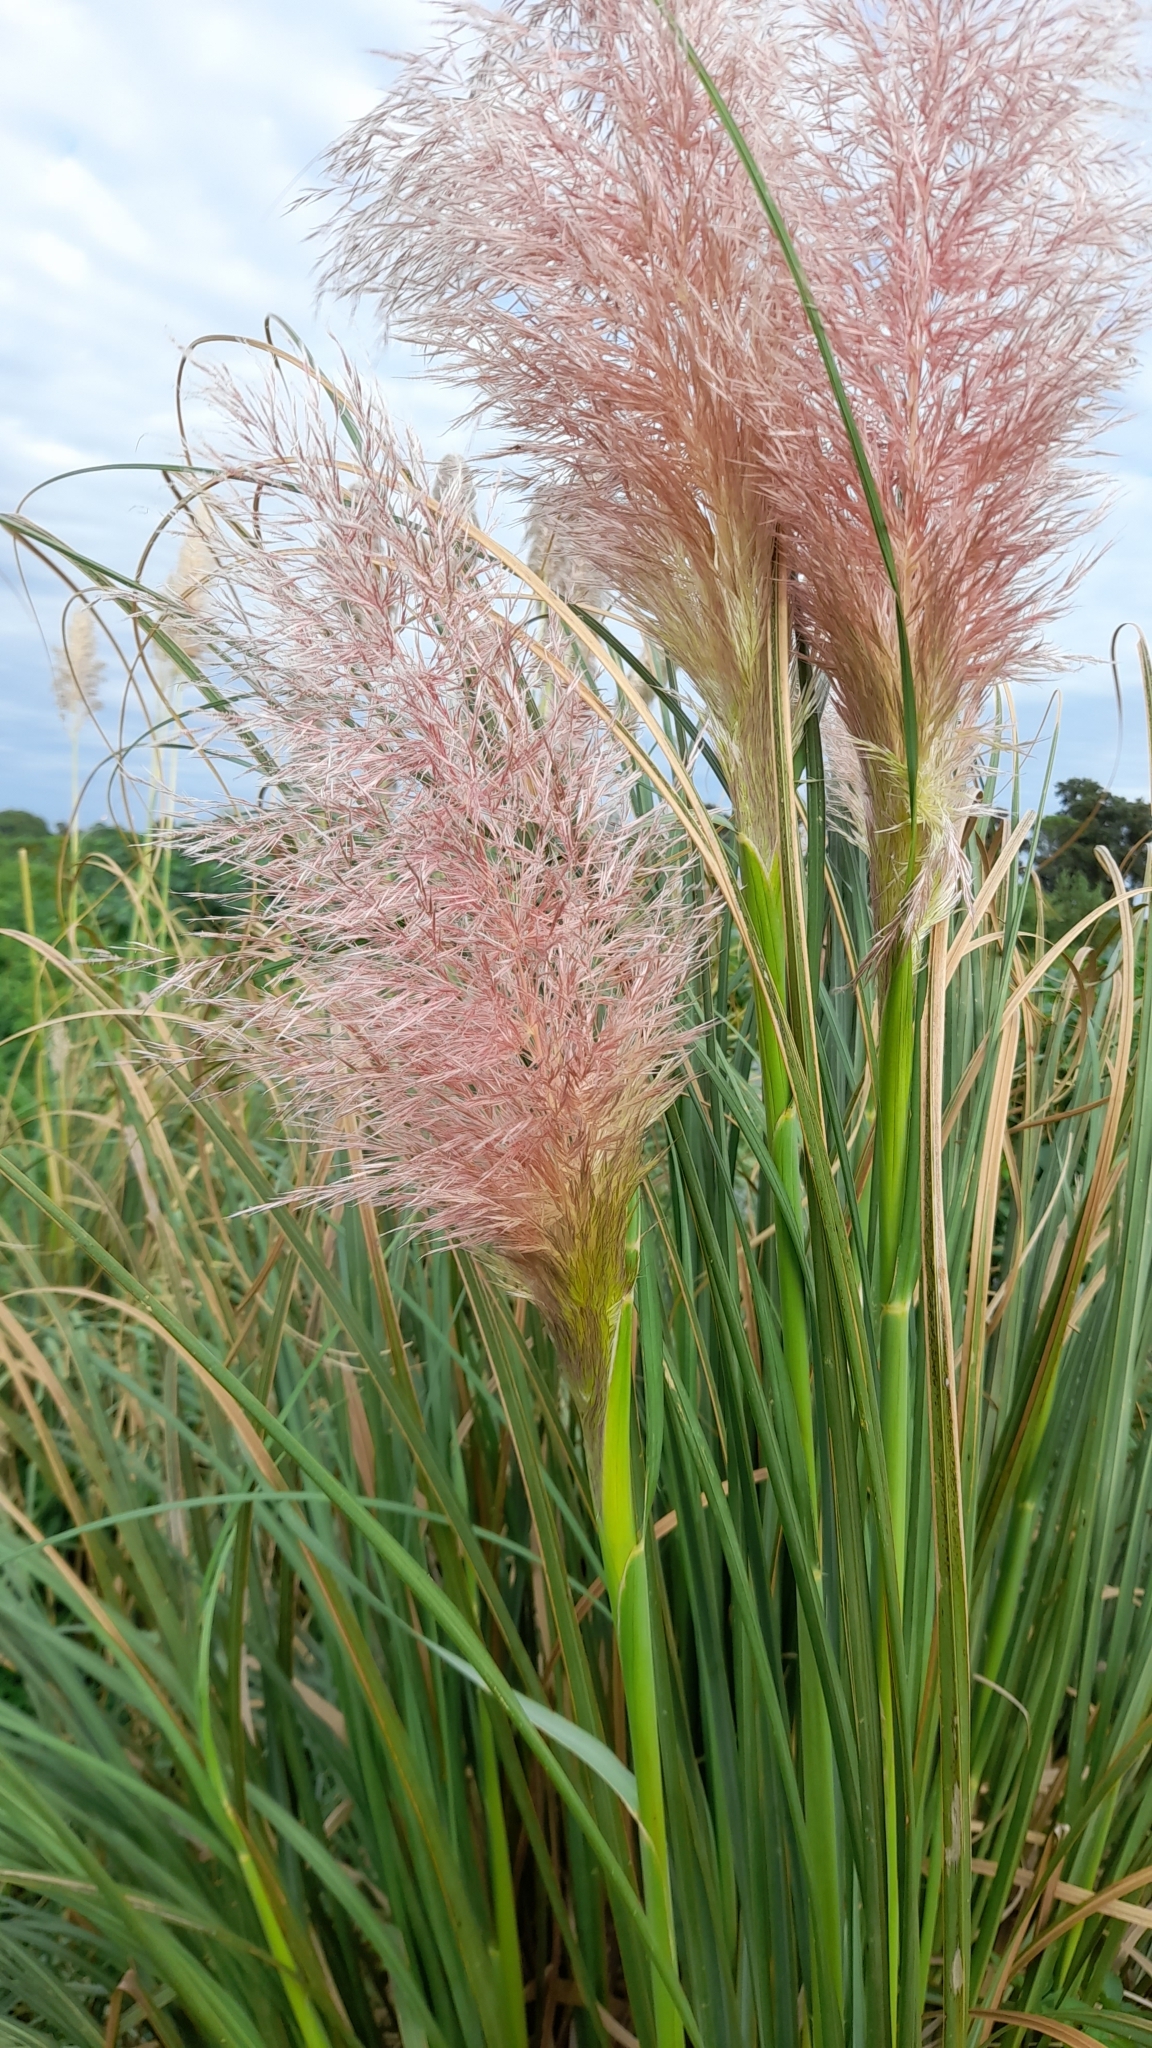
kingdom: Plantae
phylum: Tracheophyta
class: Liliopsida
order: Poales
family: Poaceae
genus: Cortaderia
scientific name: Cortaderia selloana
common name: Uruguayan pampas grass
